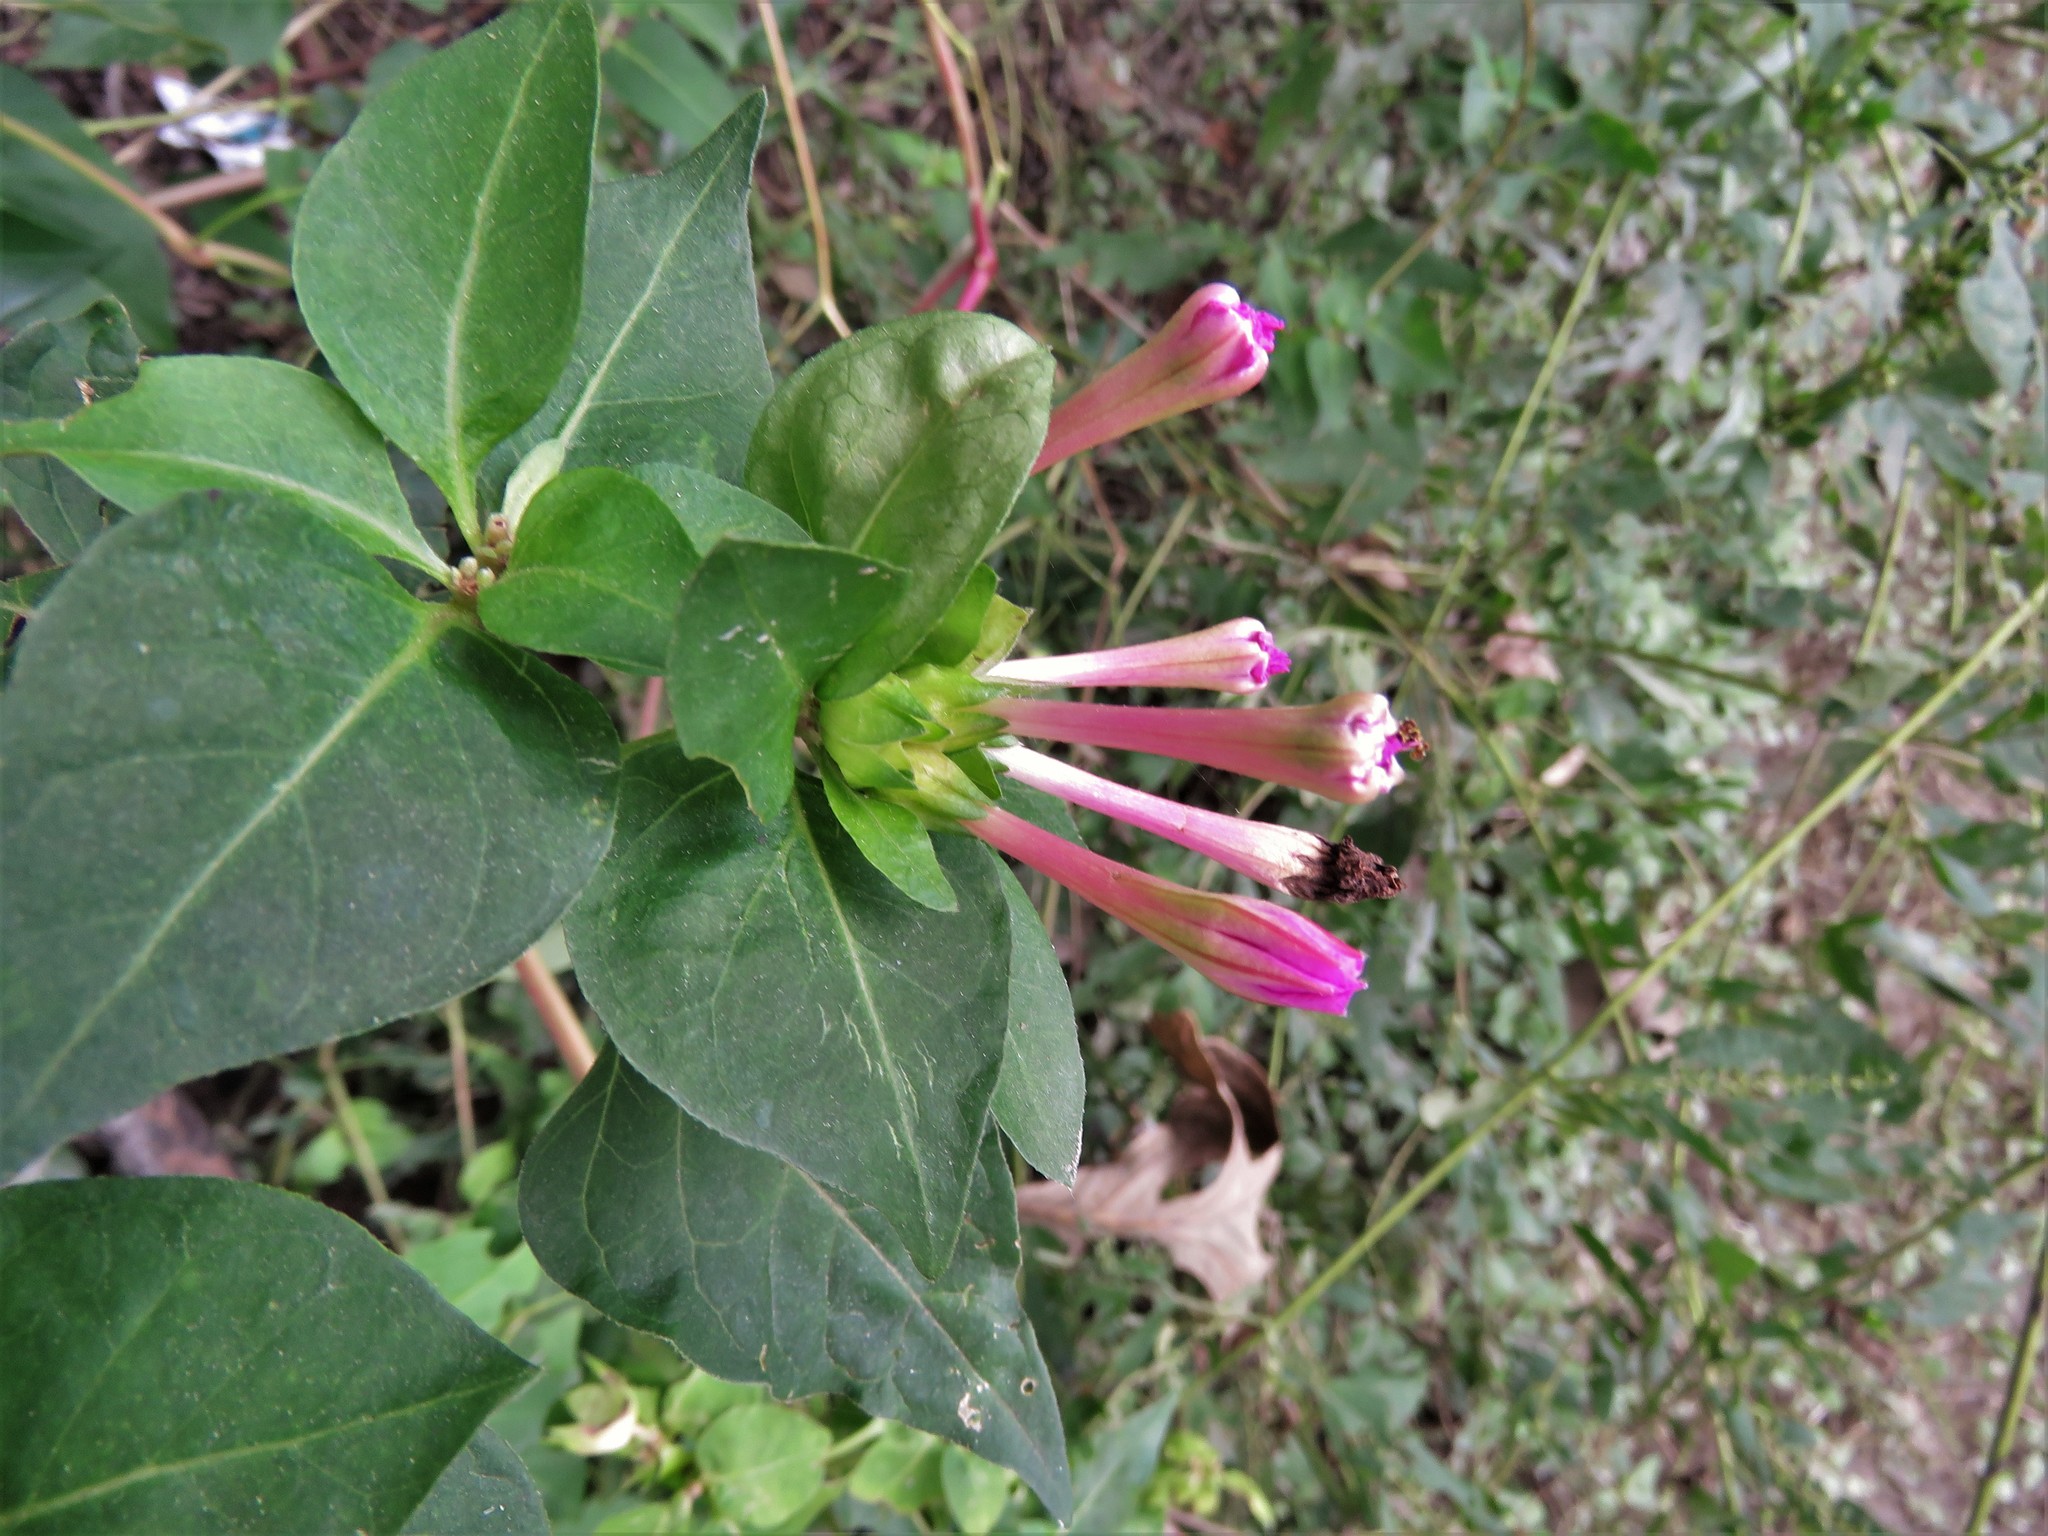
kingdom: Plantae
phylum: Tracheophyta
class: Magnoliopsida
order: Caryophyllales
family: Nyctaginaceae
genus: Mirabilis
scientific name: Mirabilis jalapa
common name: Marvel-of-peru
